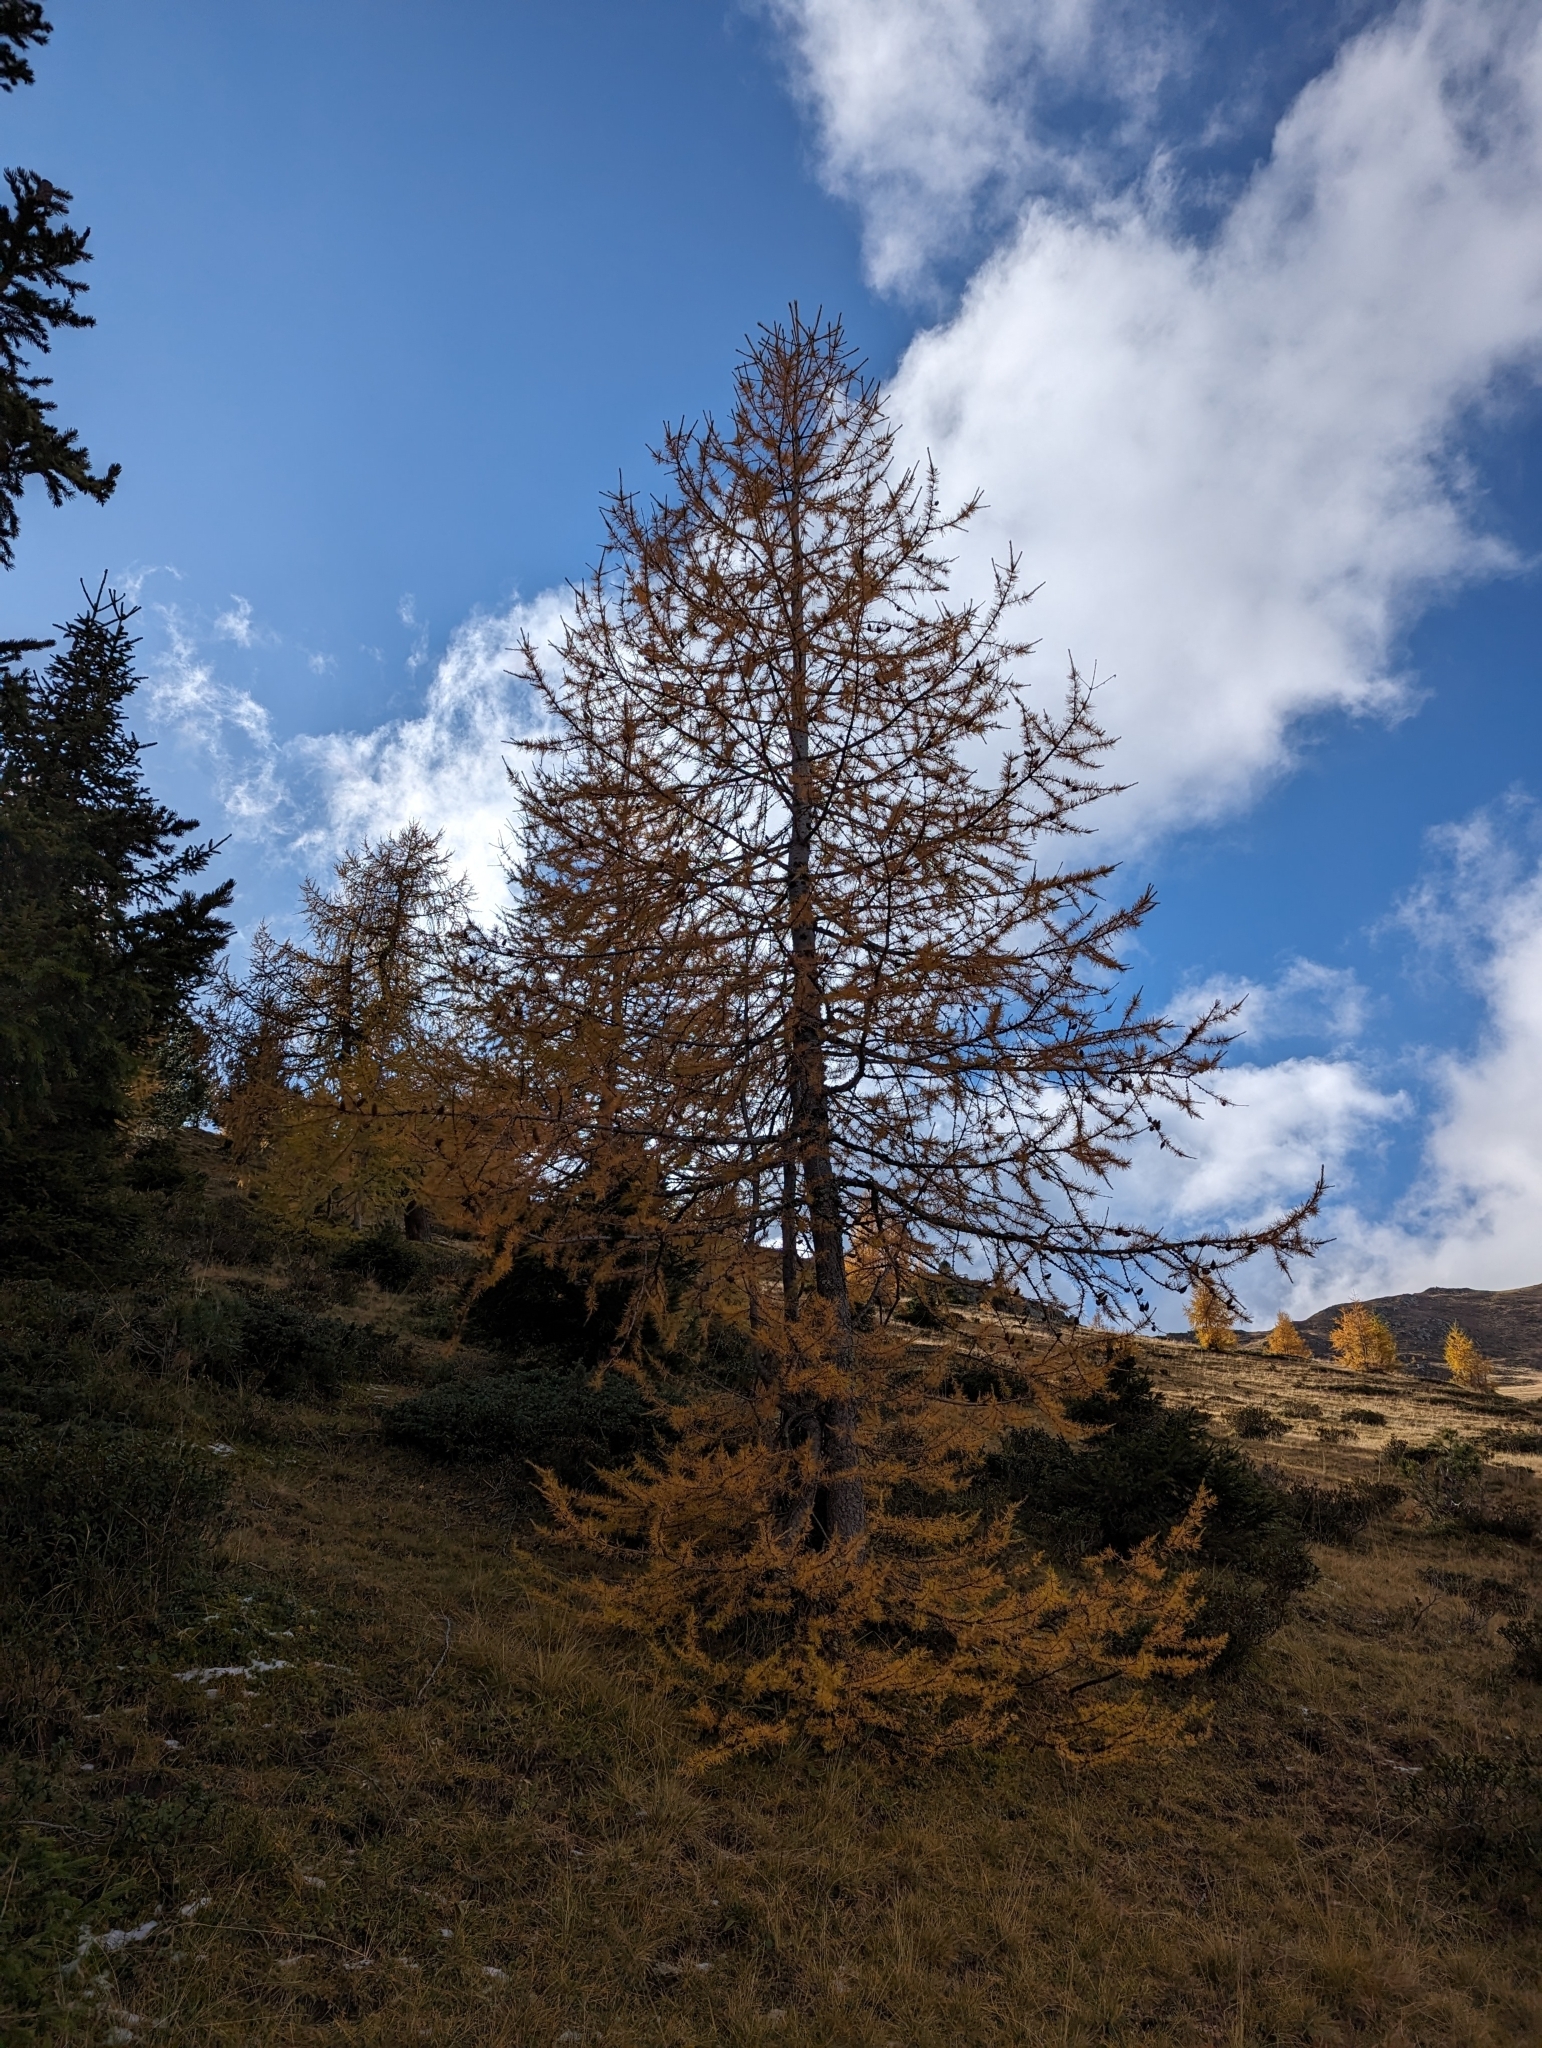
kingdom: Plantae
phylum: Tracheophyta
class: Pinopsida
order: Pinales
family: Pinaceae
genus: Larix
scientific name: Larix decidua
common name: European larch
